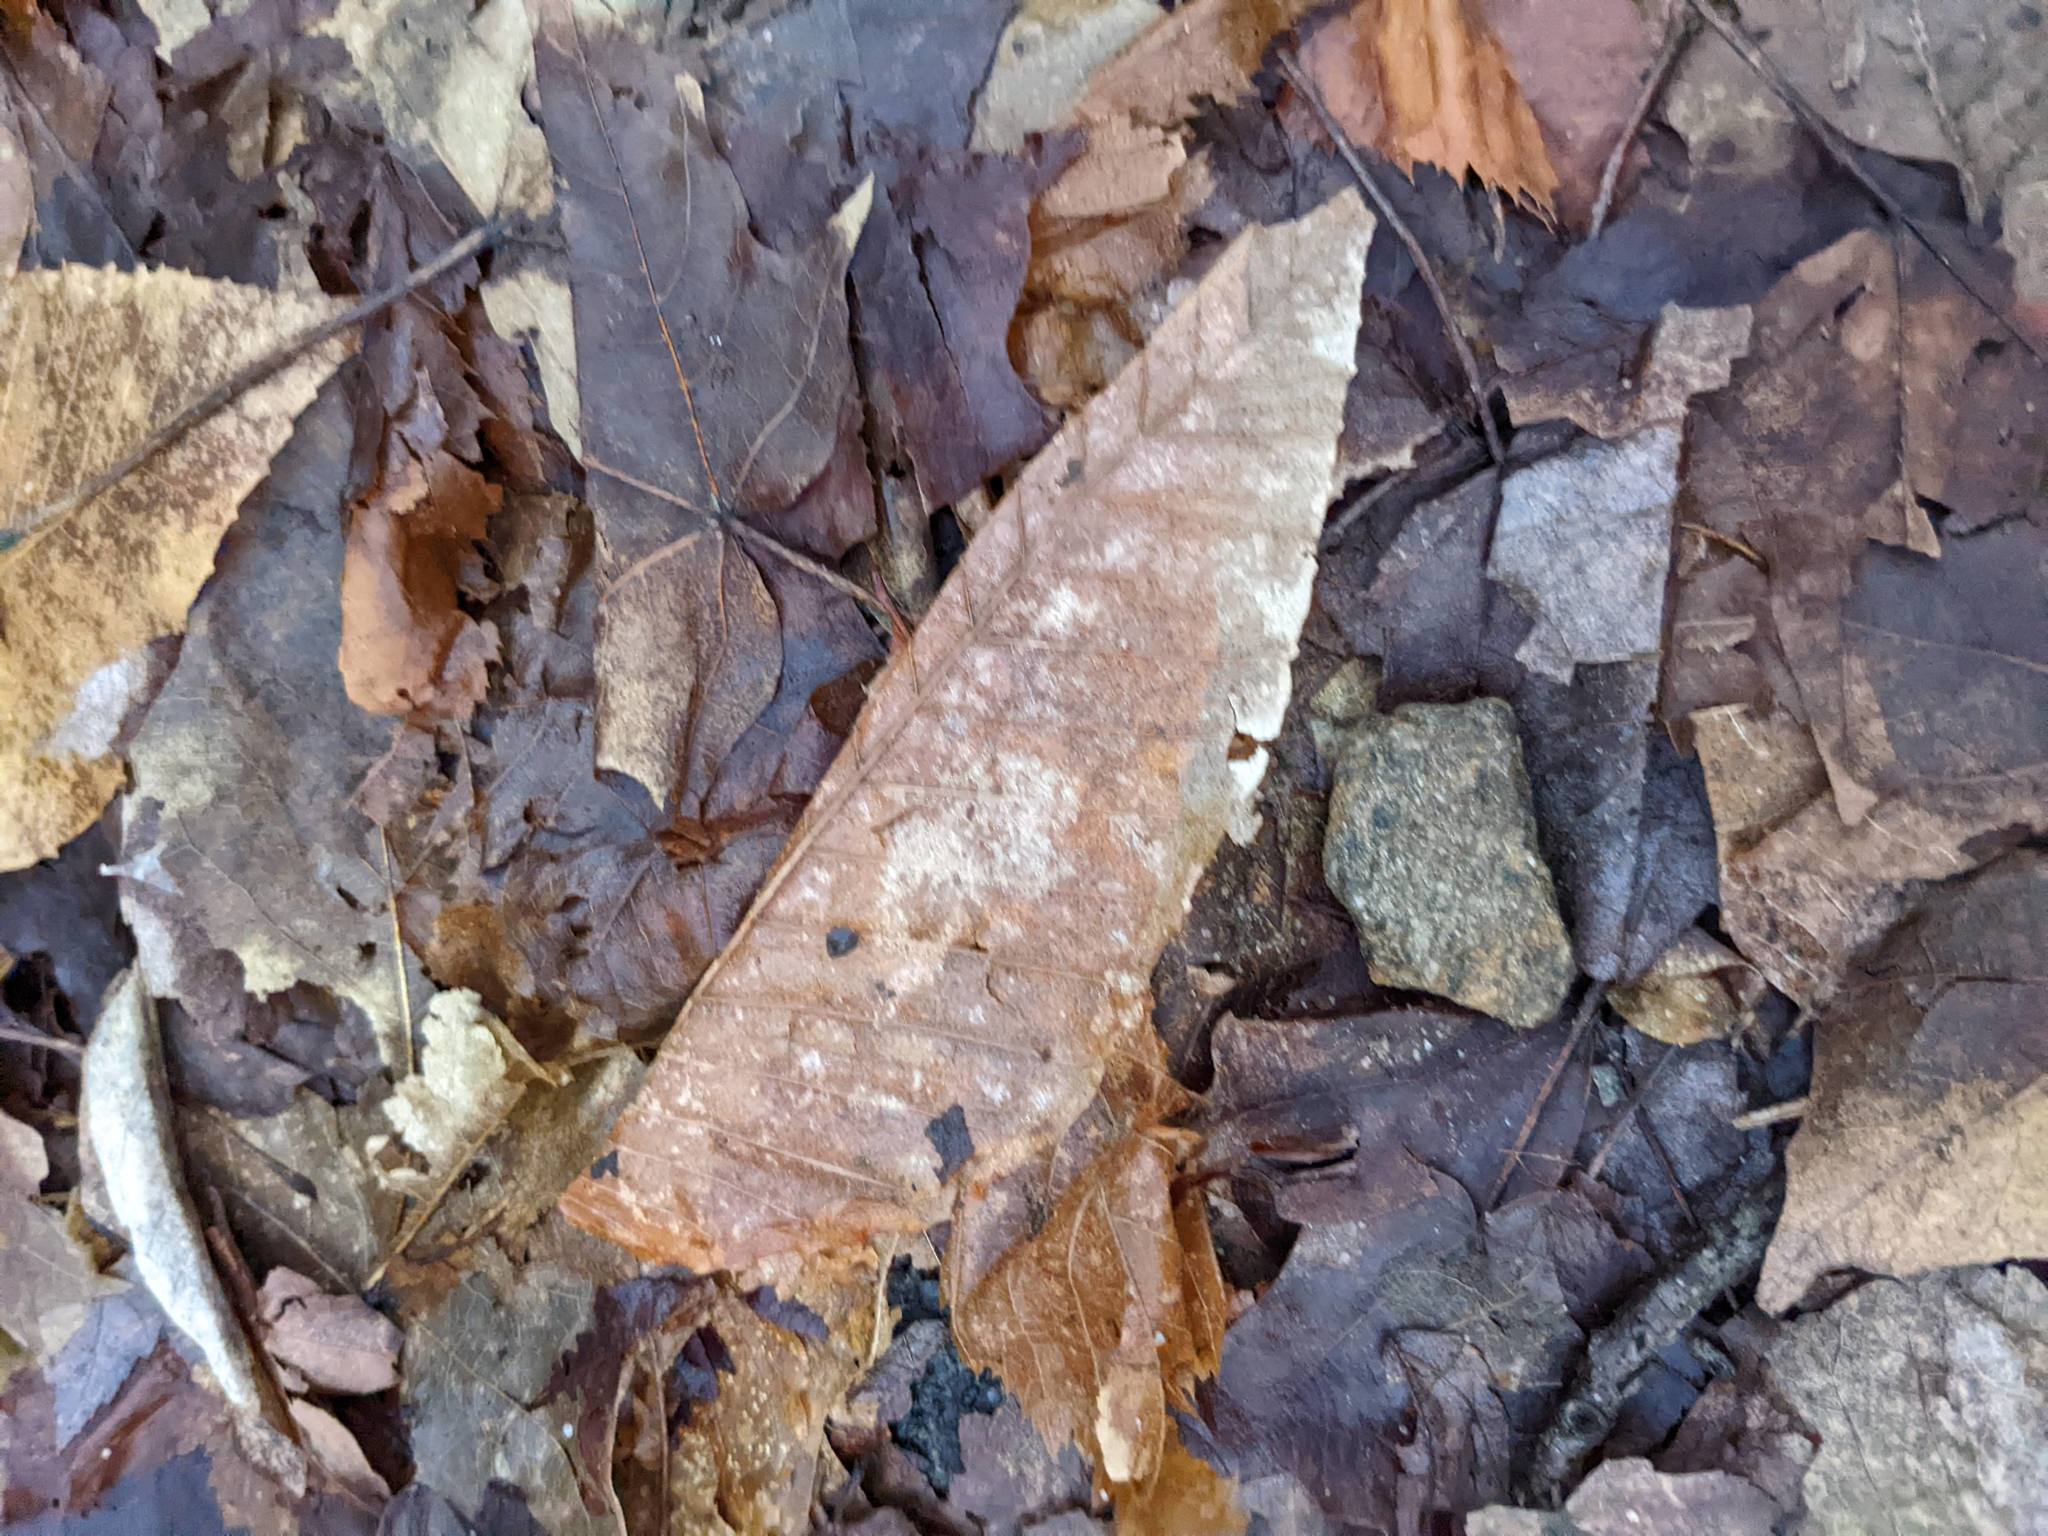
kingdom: Plantae
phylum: Tracheophyta
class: Magnoliopsida
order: Fagales
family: Fagaceae
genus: Fagus
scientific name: Fagus grandifolia
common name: American beech
